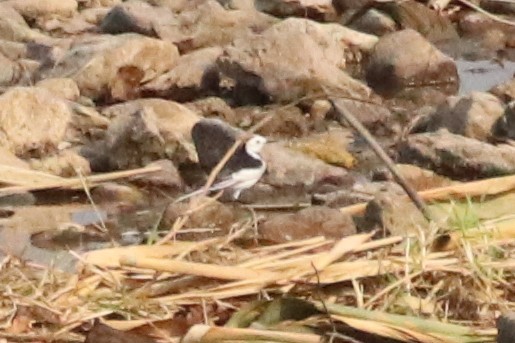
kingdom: Animalia
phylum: Chordata
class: Aves
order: Passeriformes
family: Motacillidae
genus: Motacilla
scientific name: Motacilla alba
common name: White wagtail
